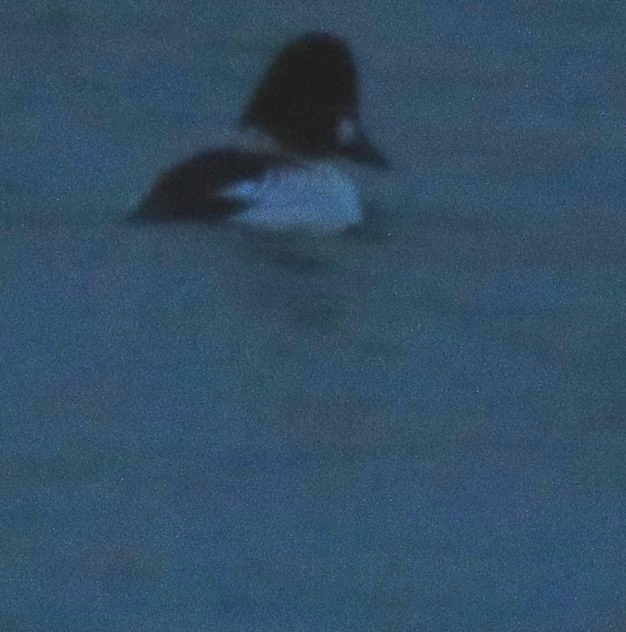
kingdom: Animalia
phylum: Chordata
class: Aves
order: Anseriformes
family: Anatidae
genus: Bucephala
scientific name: Bucephala clangula
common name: Common goldeneye
